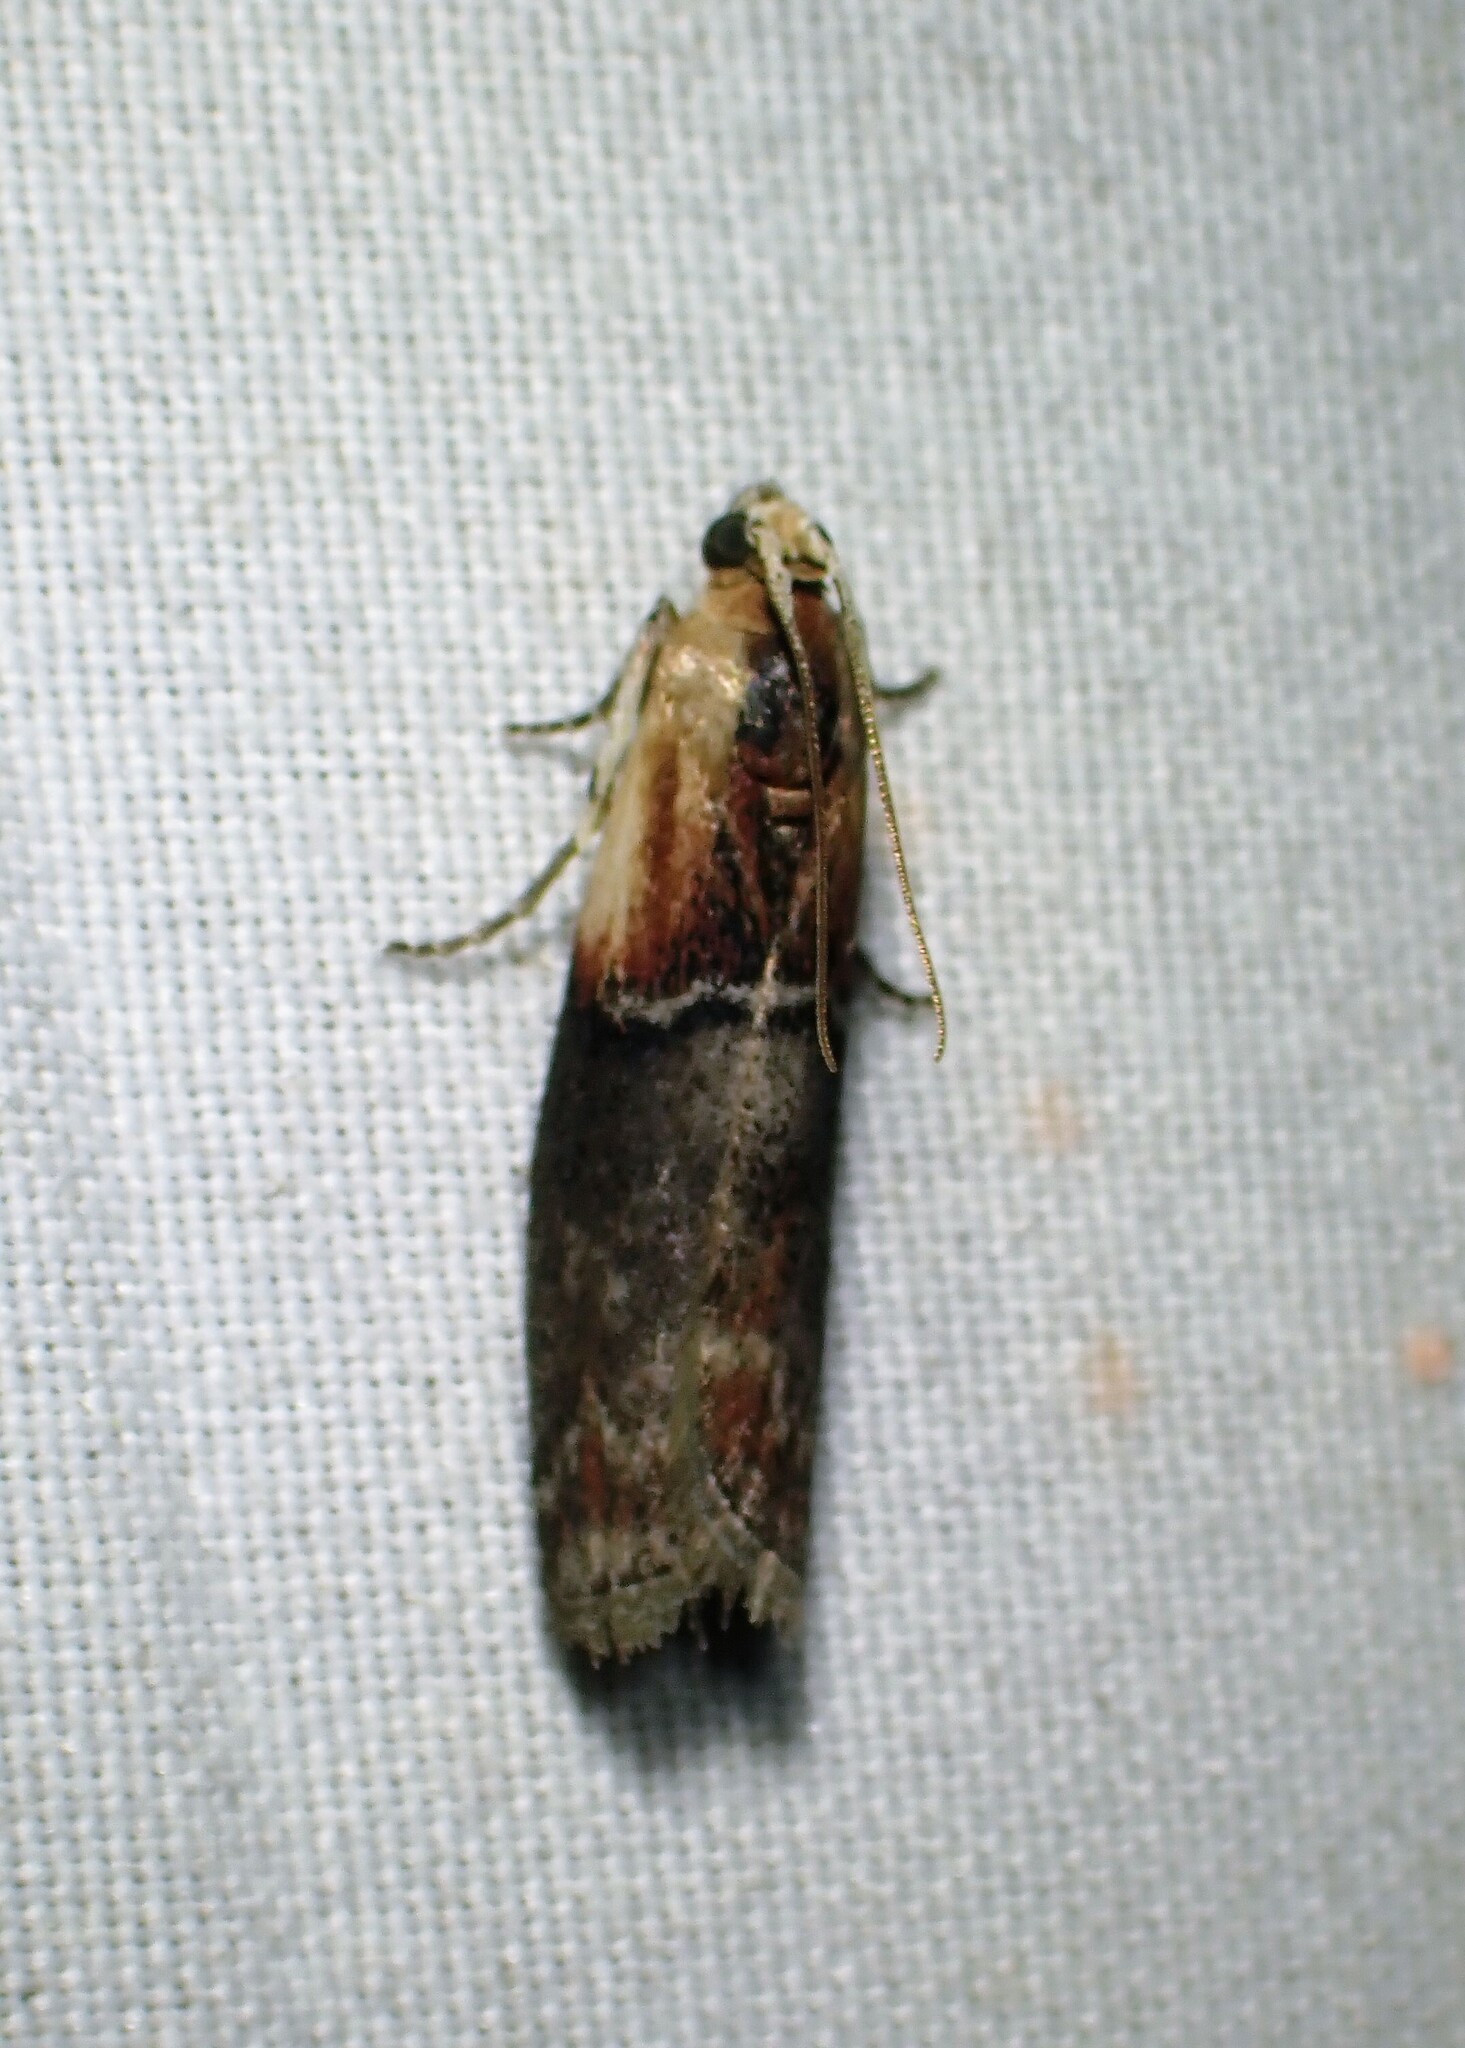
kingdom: Animalia
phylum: Arthropoda
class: Insecta
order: Lepidoptera
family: Pyralidae
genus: Sciota
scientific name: Sciota basilaris
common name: Yellow-shouldered leafroller
